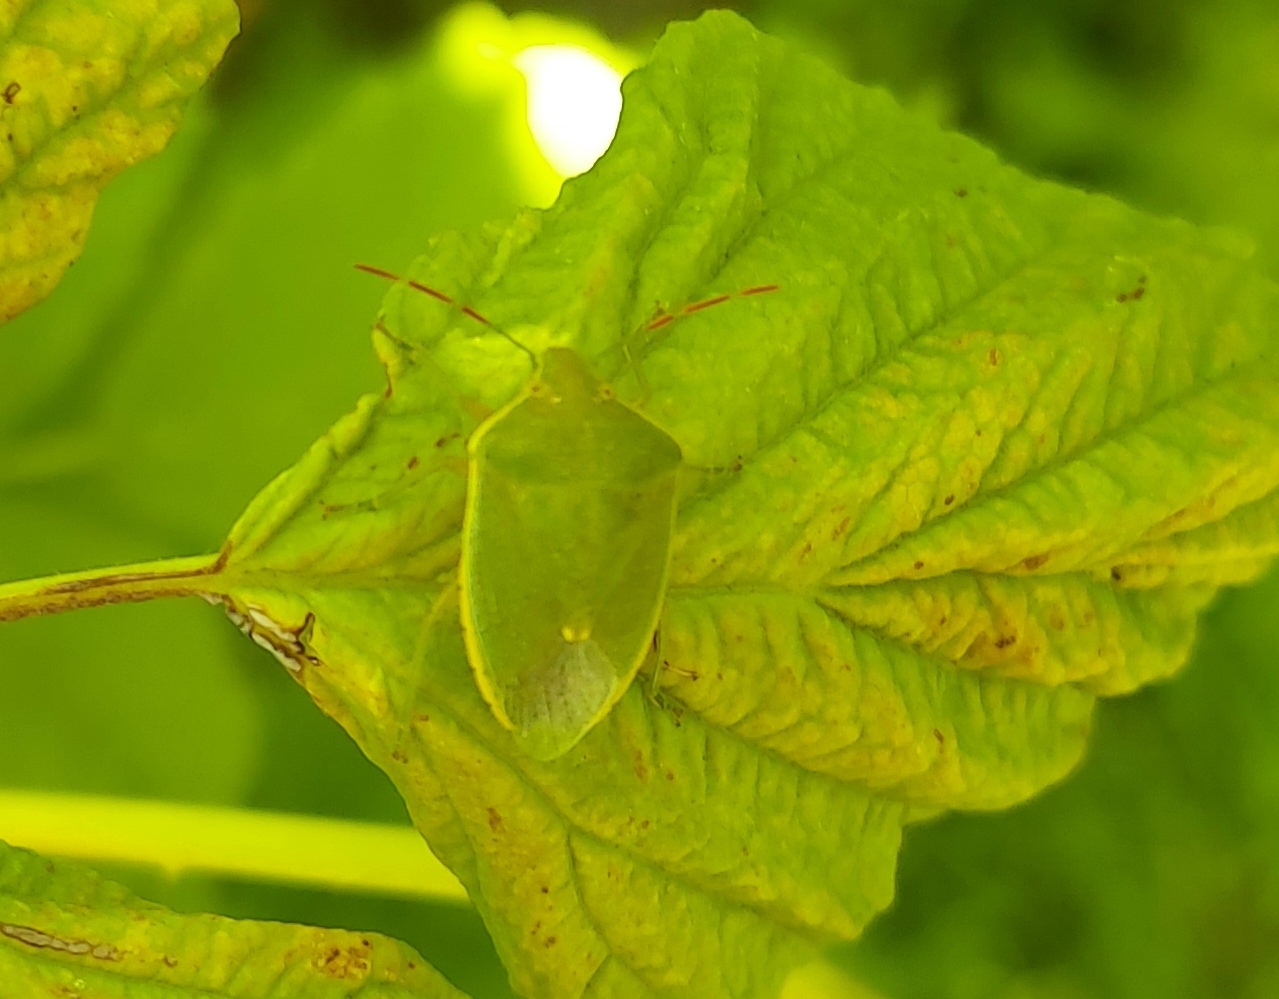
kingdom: Animalia
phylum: Arthropoda
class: Insecta
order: Hemiptera
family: Pentatomidae
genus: Acrosternum
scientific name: Acrosternum heegeri
